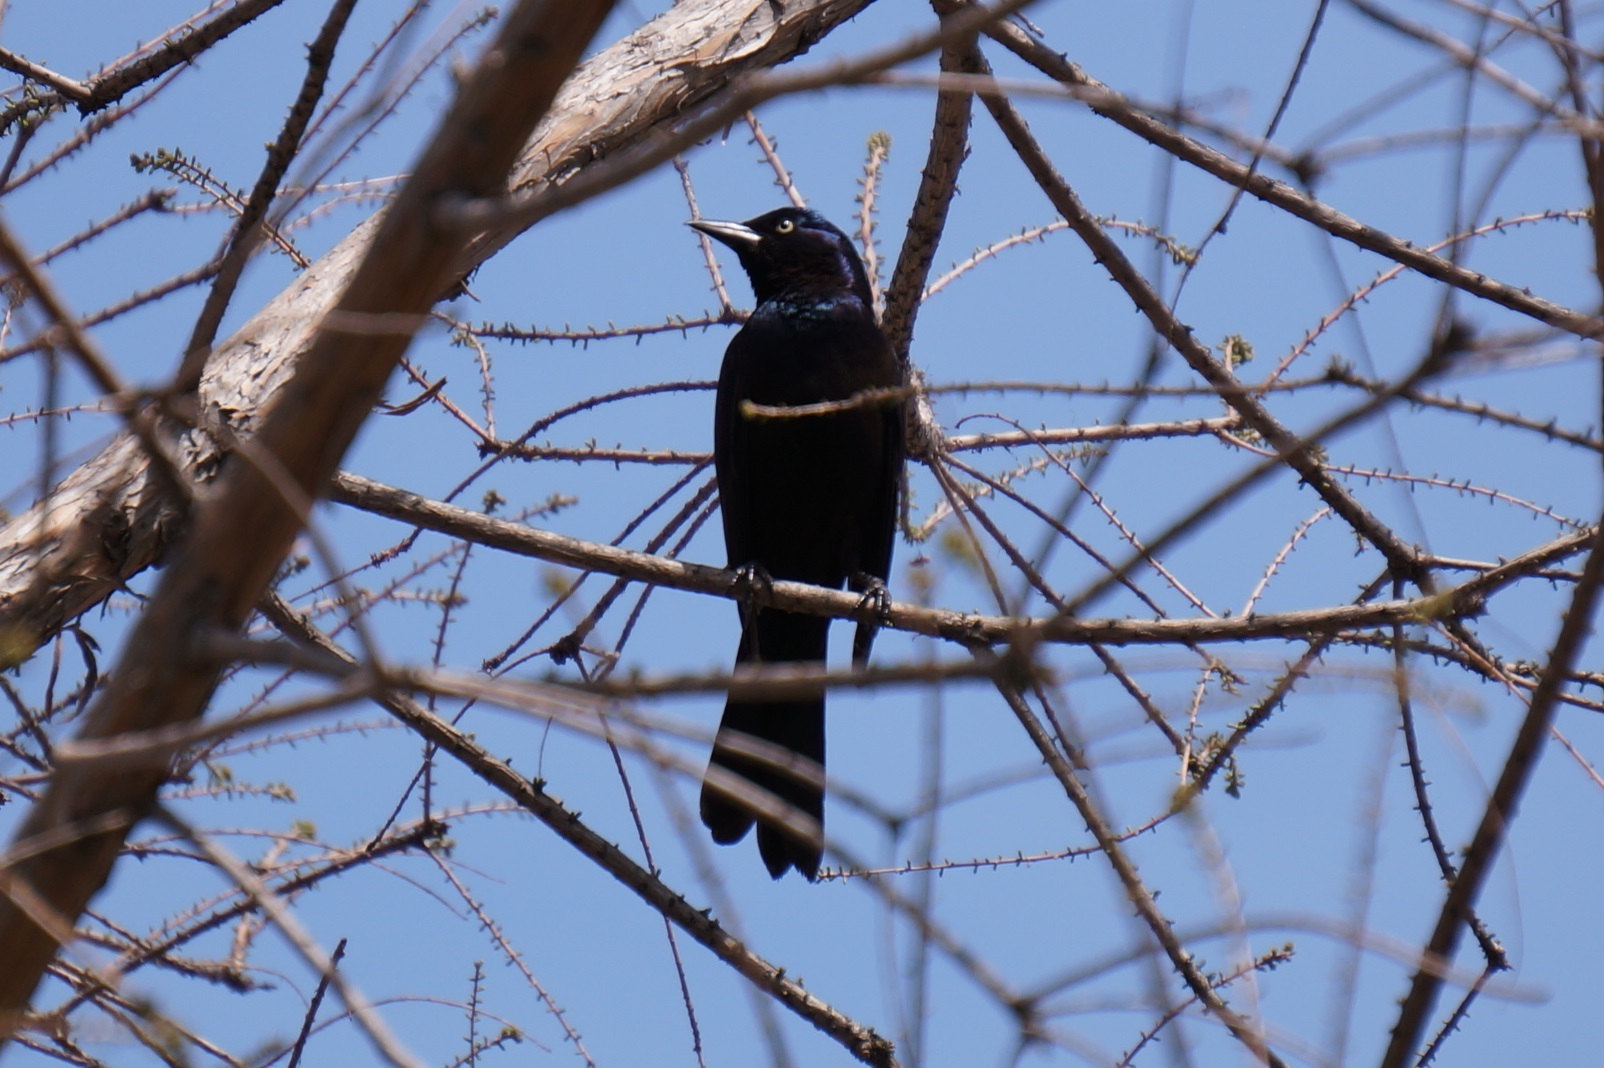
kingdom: Animalia
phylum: Chordata
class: Aves
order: Passeriformes
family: Icteridae
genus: Quiscalus
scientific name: Quiscalus quiscula
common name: Common grackle
